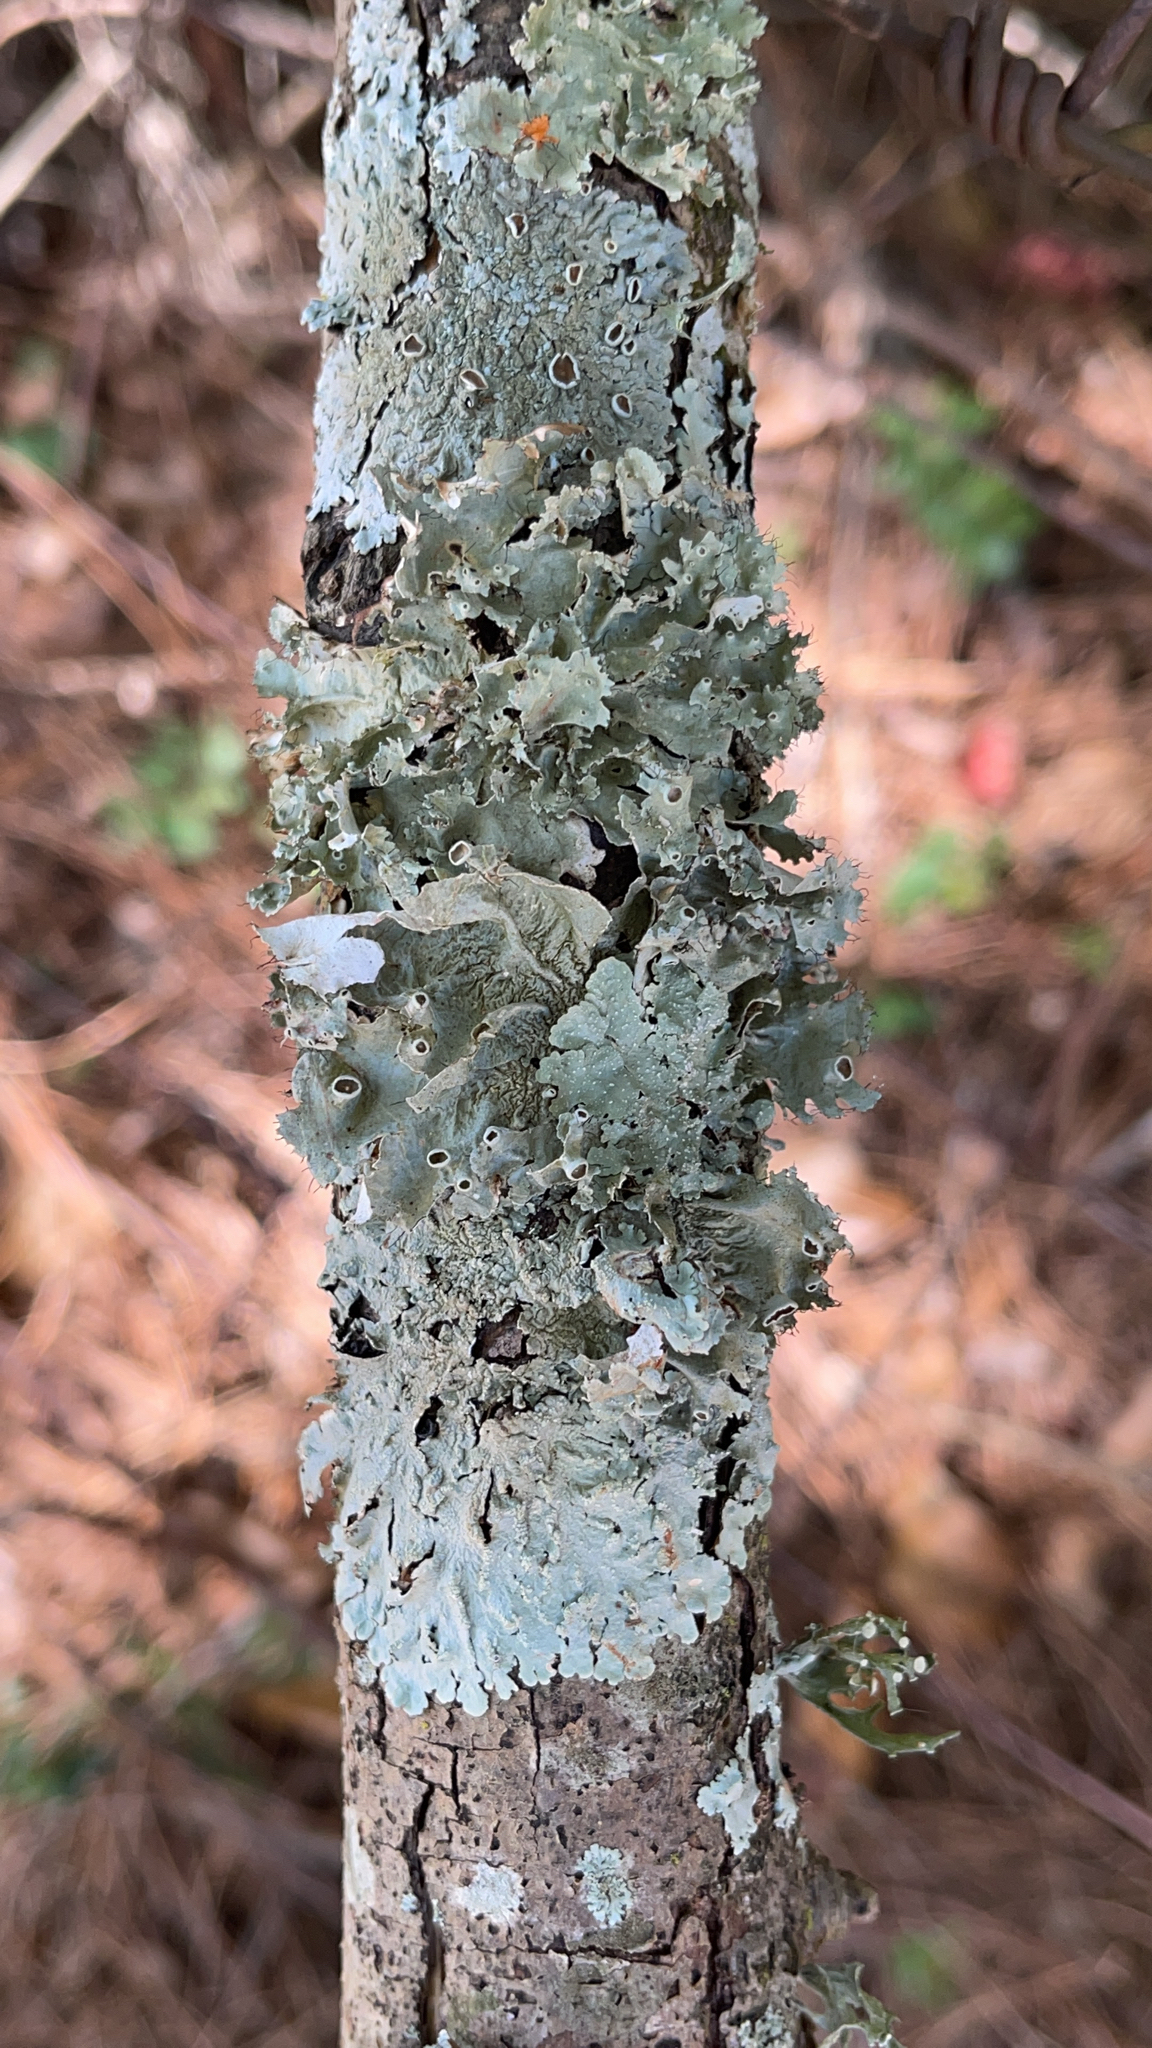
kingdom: Fungi
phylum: Ascomycota
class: Lecanoromycetes
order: Lecanorales
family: Parmeliaceae
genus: Parmotrema
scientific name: Parmotrema perforatum
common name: Perforated ruffle lichen
